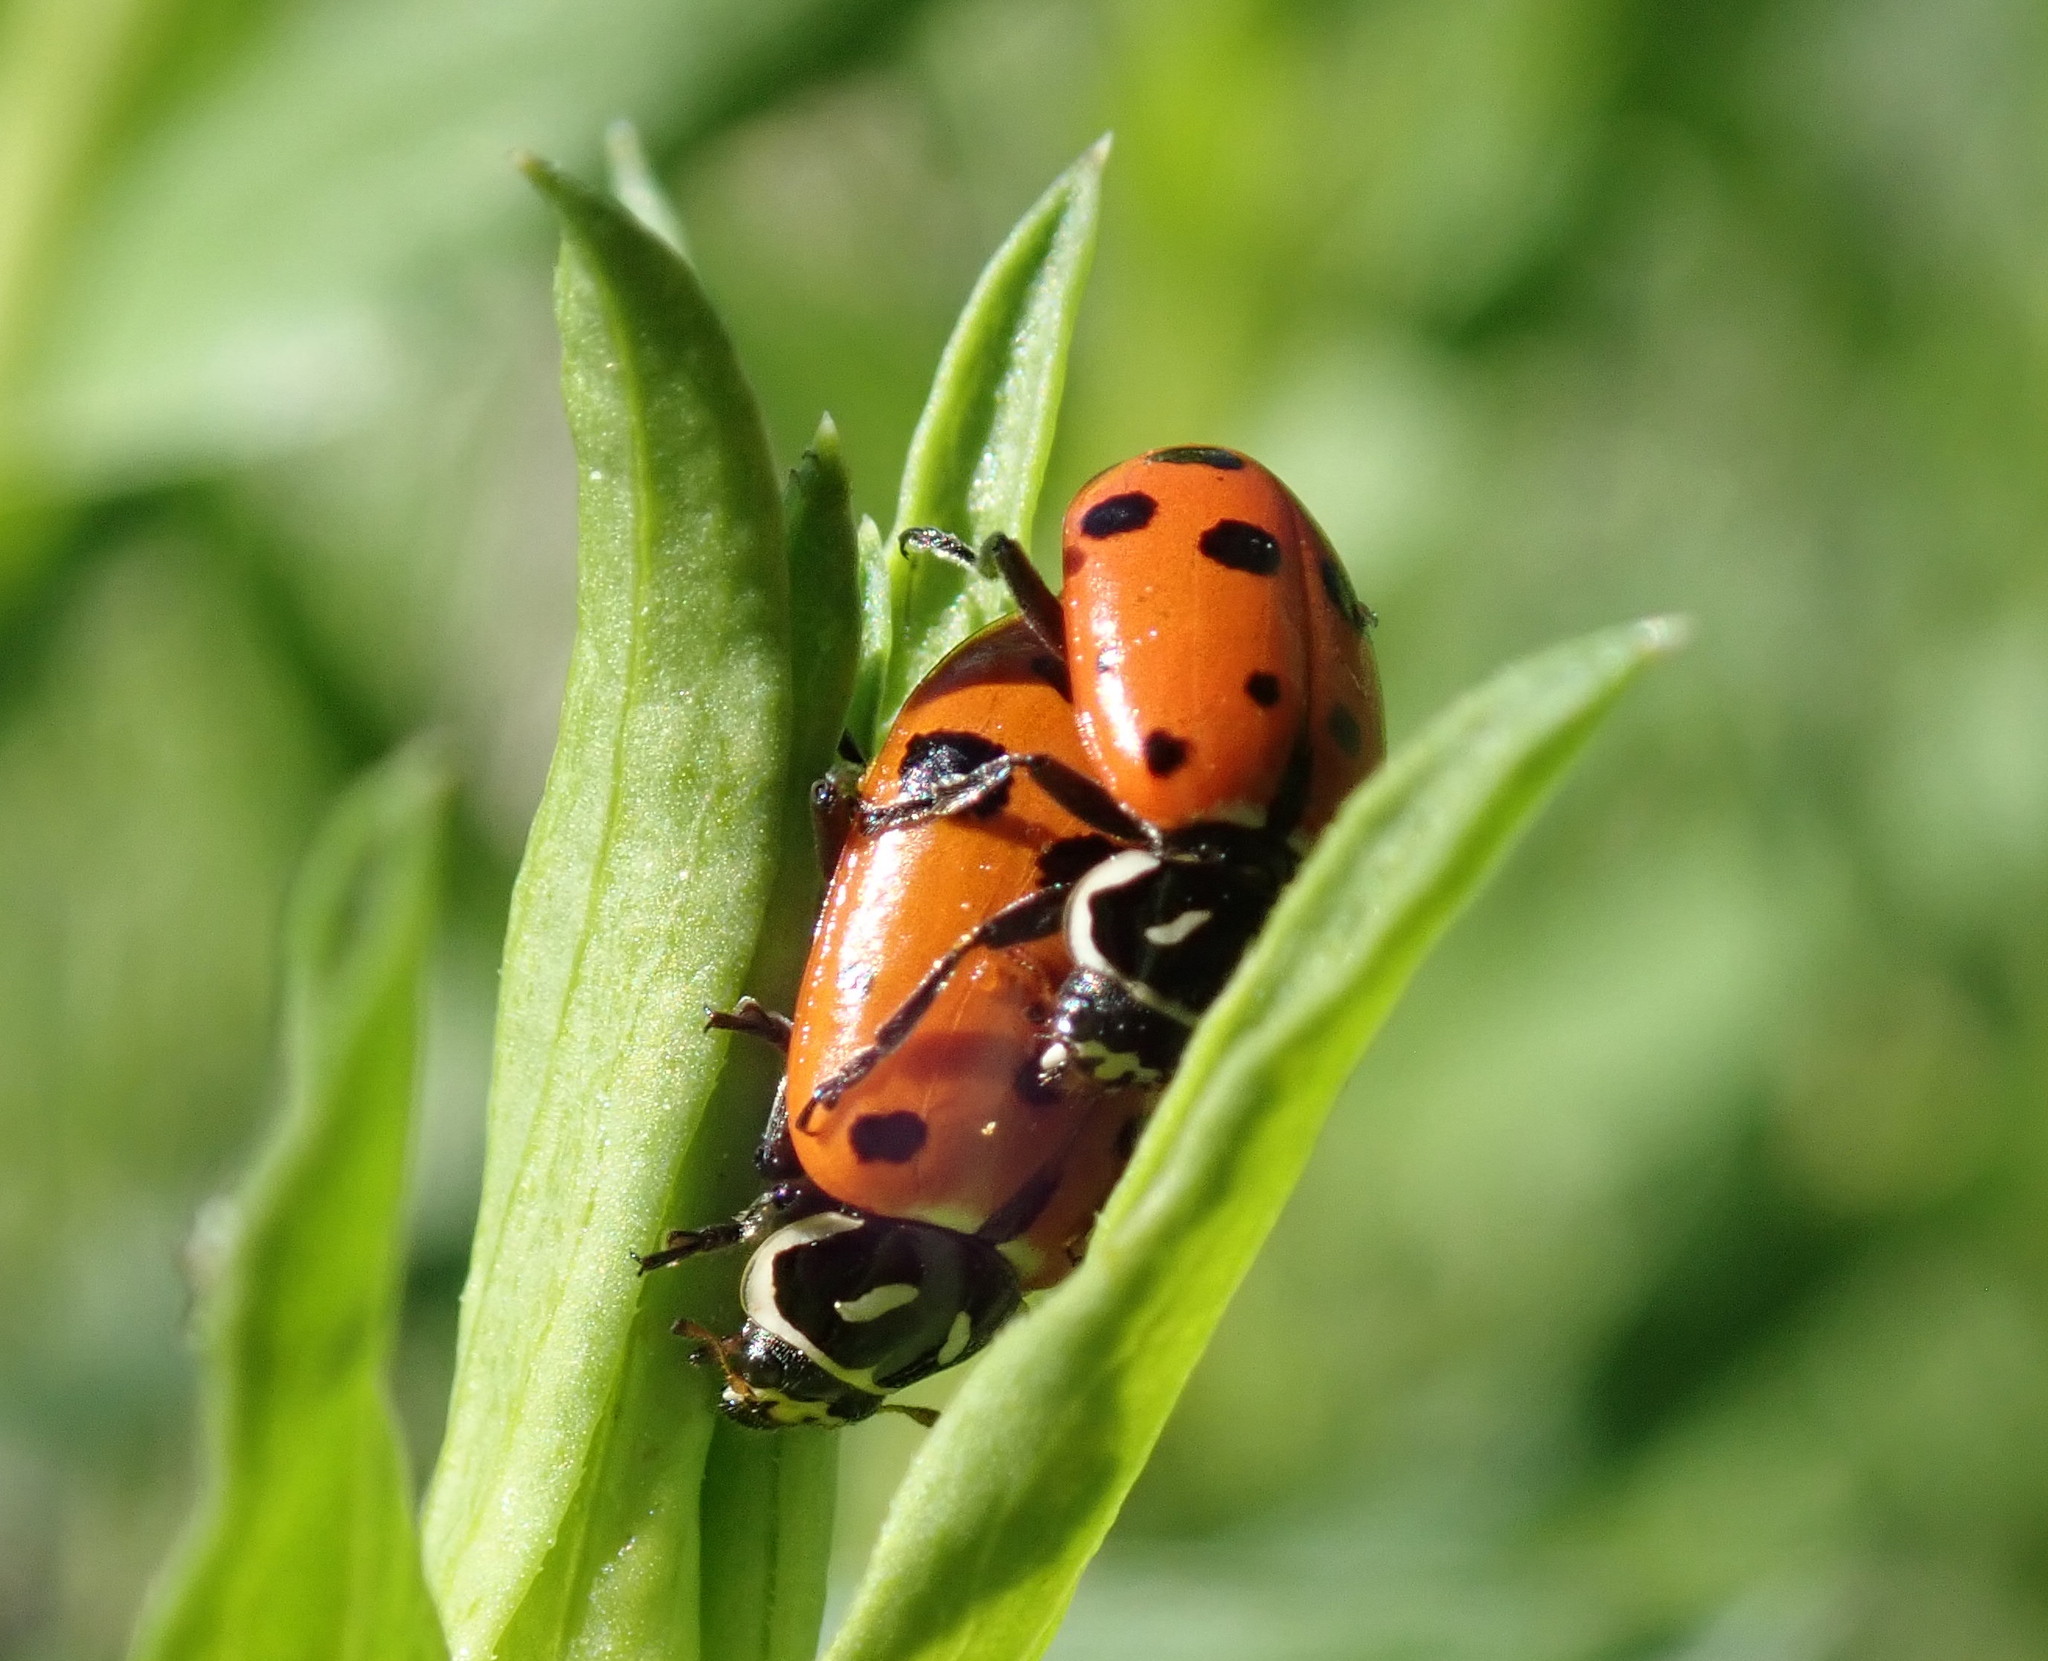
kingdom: Animalia
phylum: Arthropoda
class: Insecta
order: Coleoptera
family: Coccinellidae
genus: Hippodamia
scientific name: Hippodamia convergens
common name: Convergent lady beetle
